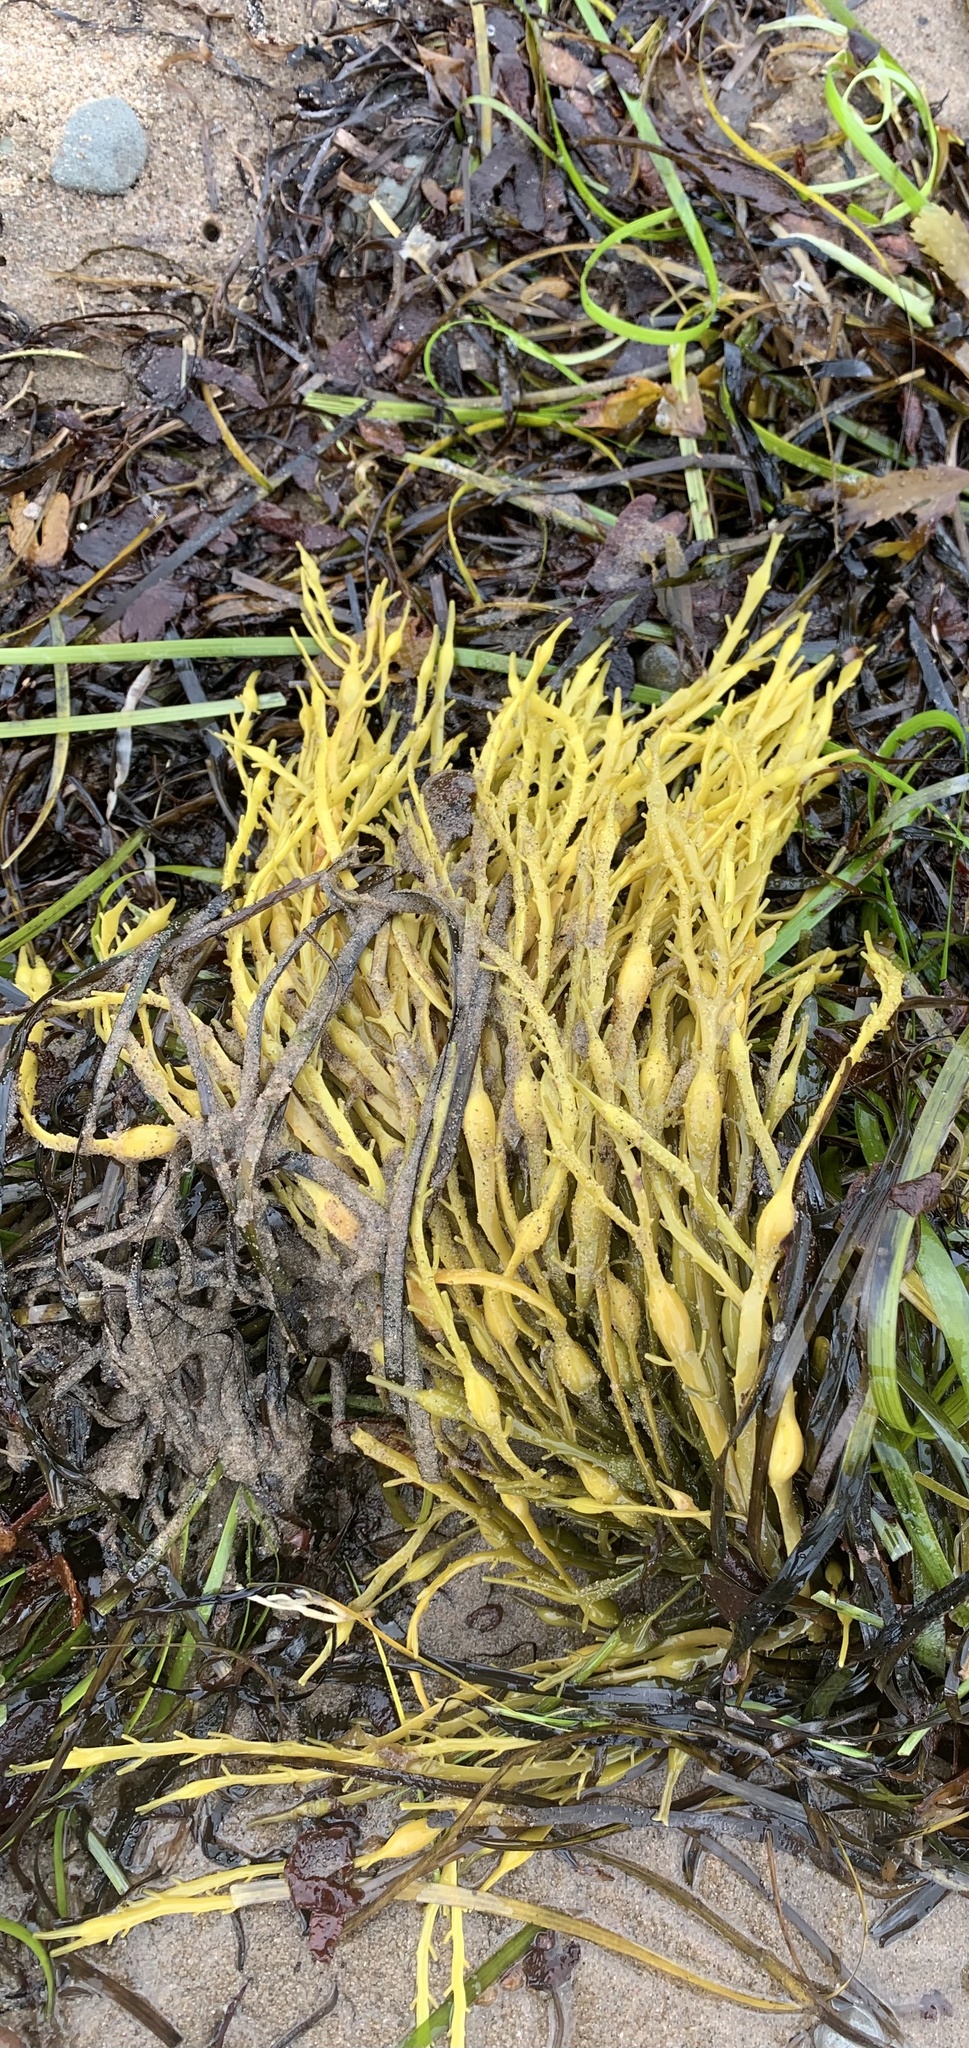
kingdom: Chromista
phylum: Ochrophyta
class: Phaeophyceae
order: Fucales
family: Fucaceae
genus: Ascophyllum
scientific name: Ascophyllum nodosum
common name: Knotted wrack
